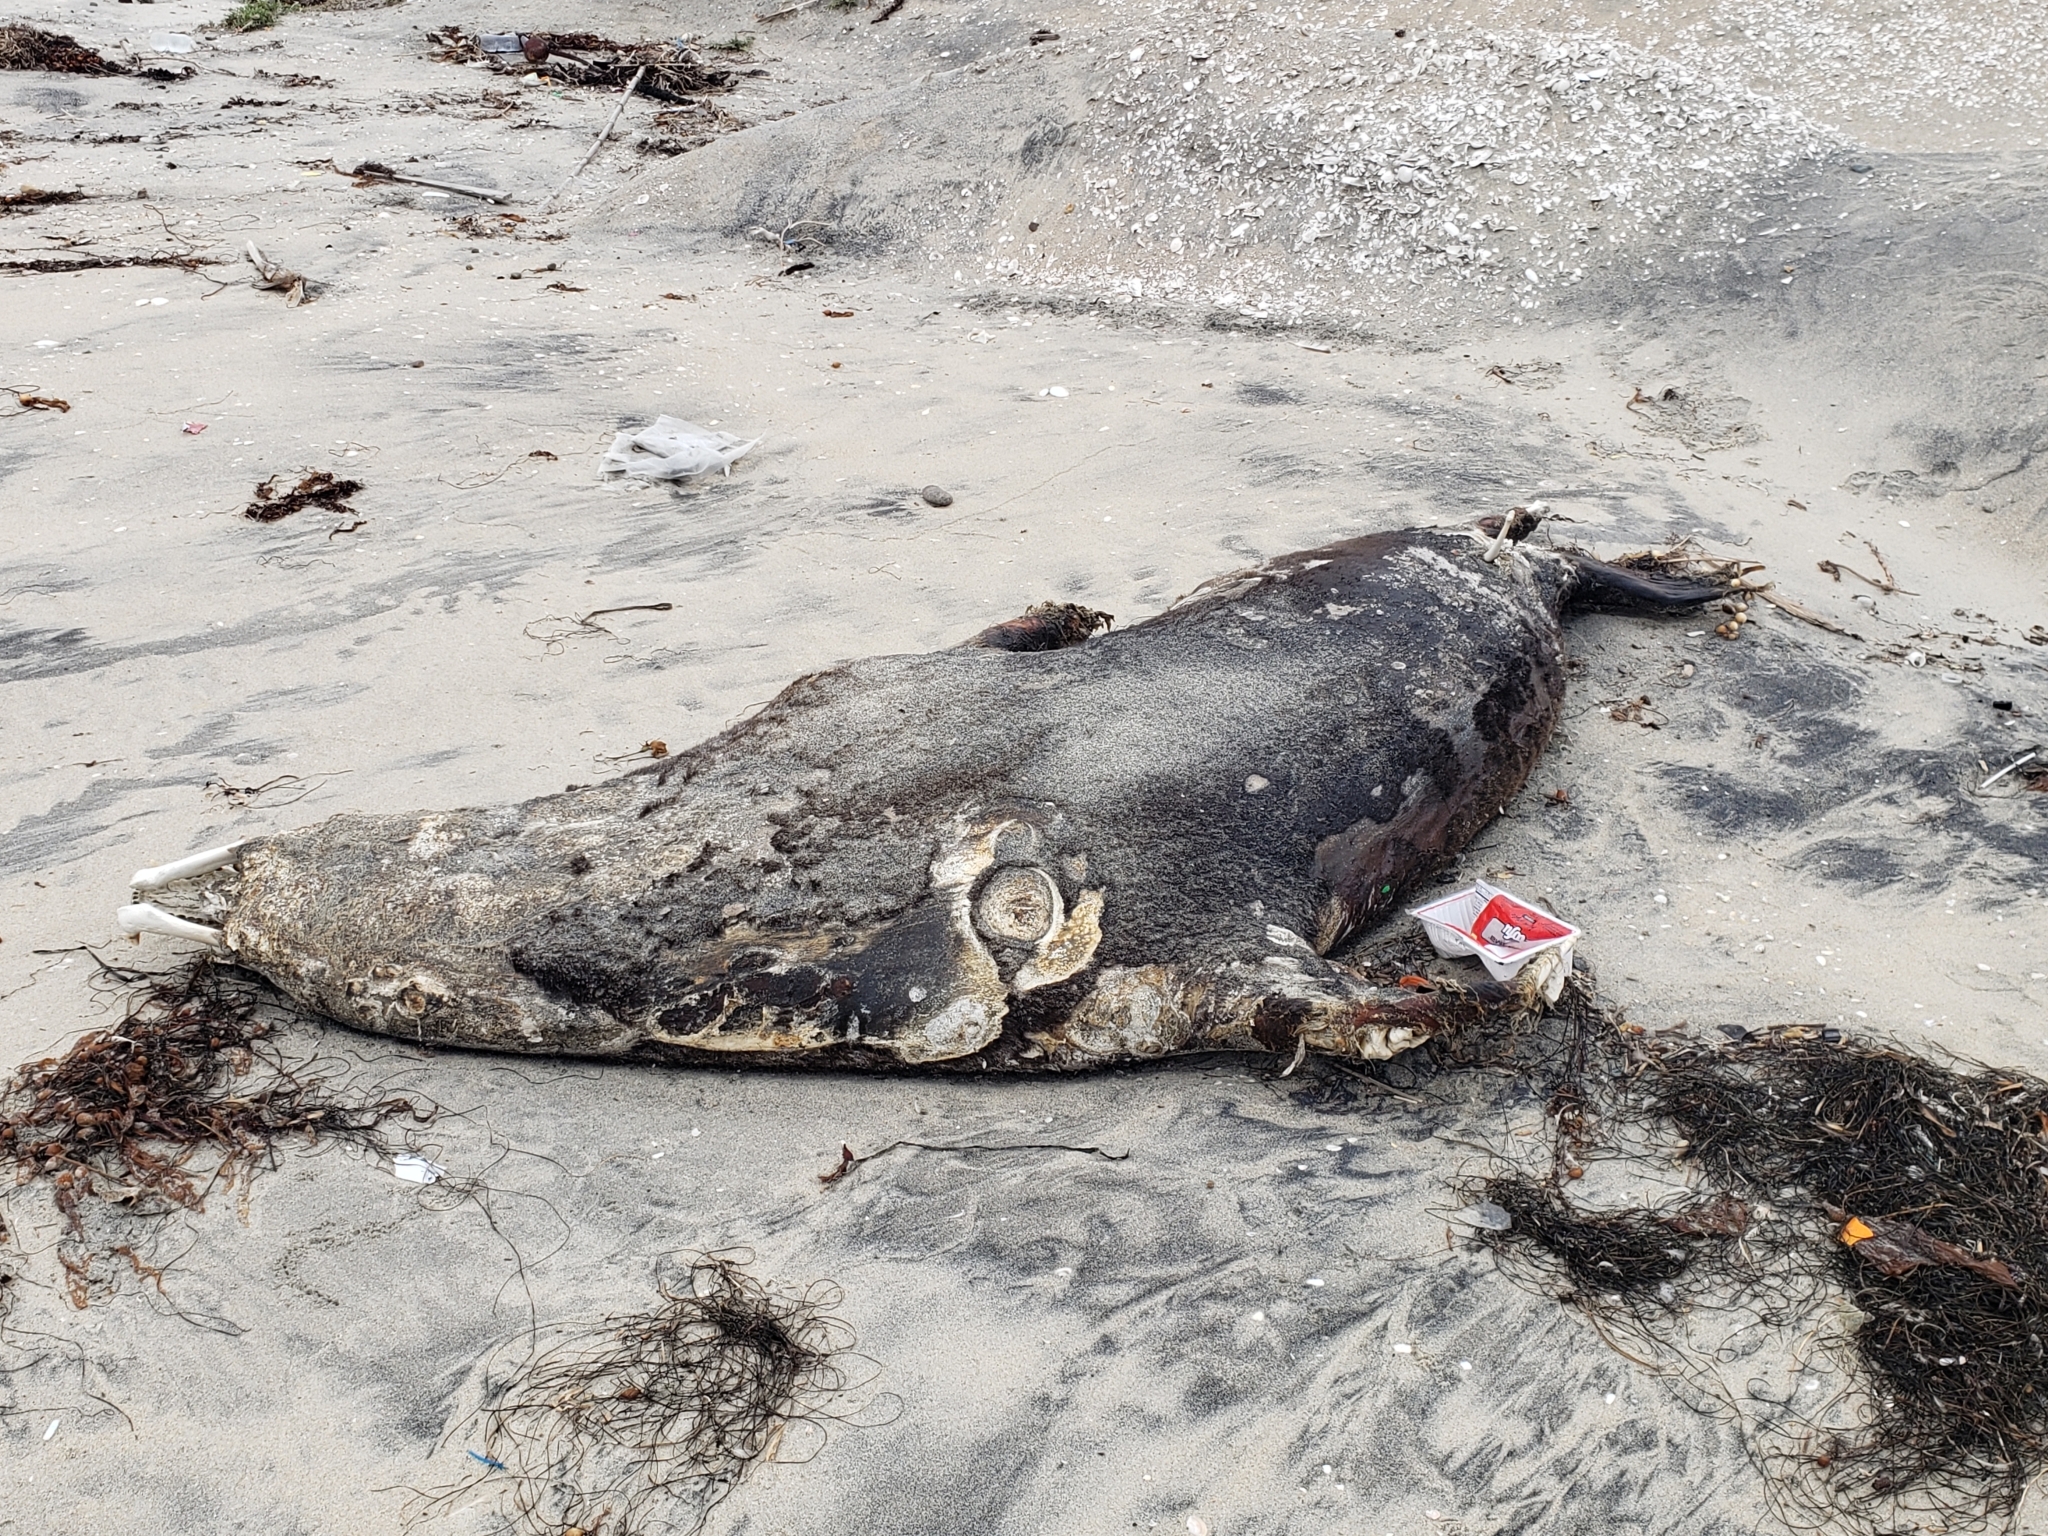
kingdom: Animalia
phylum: Chordata
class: Mammalia
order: Carnivora
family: Otariidae
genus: Zalophus
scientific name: Zalophus californianus
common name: California sea lion
